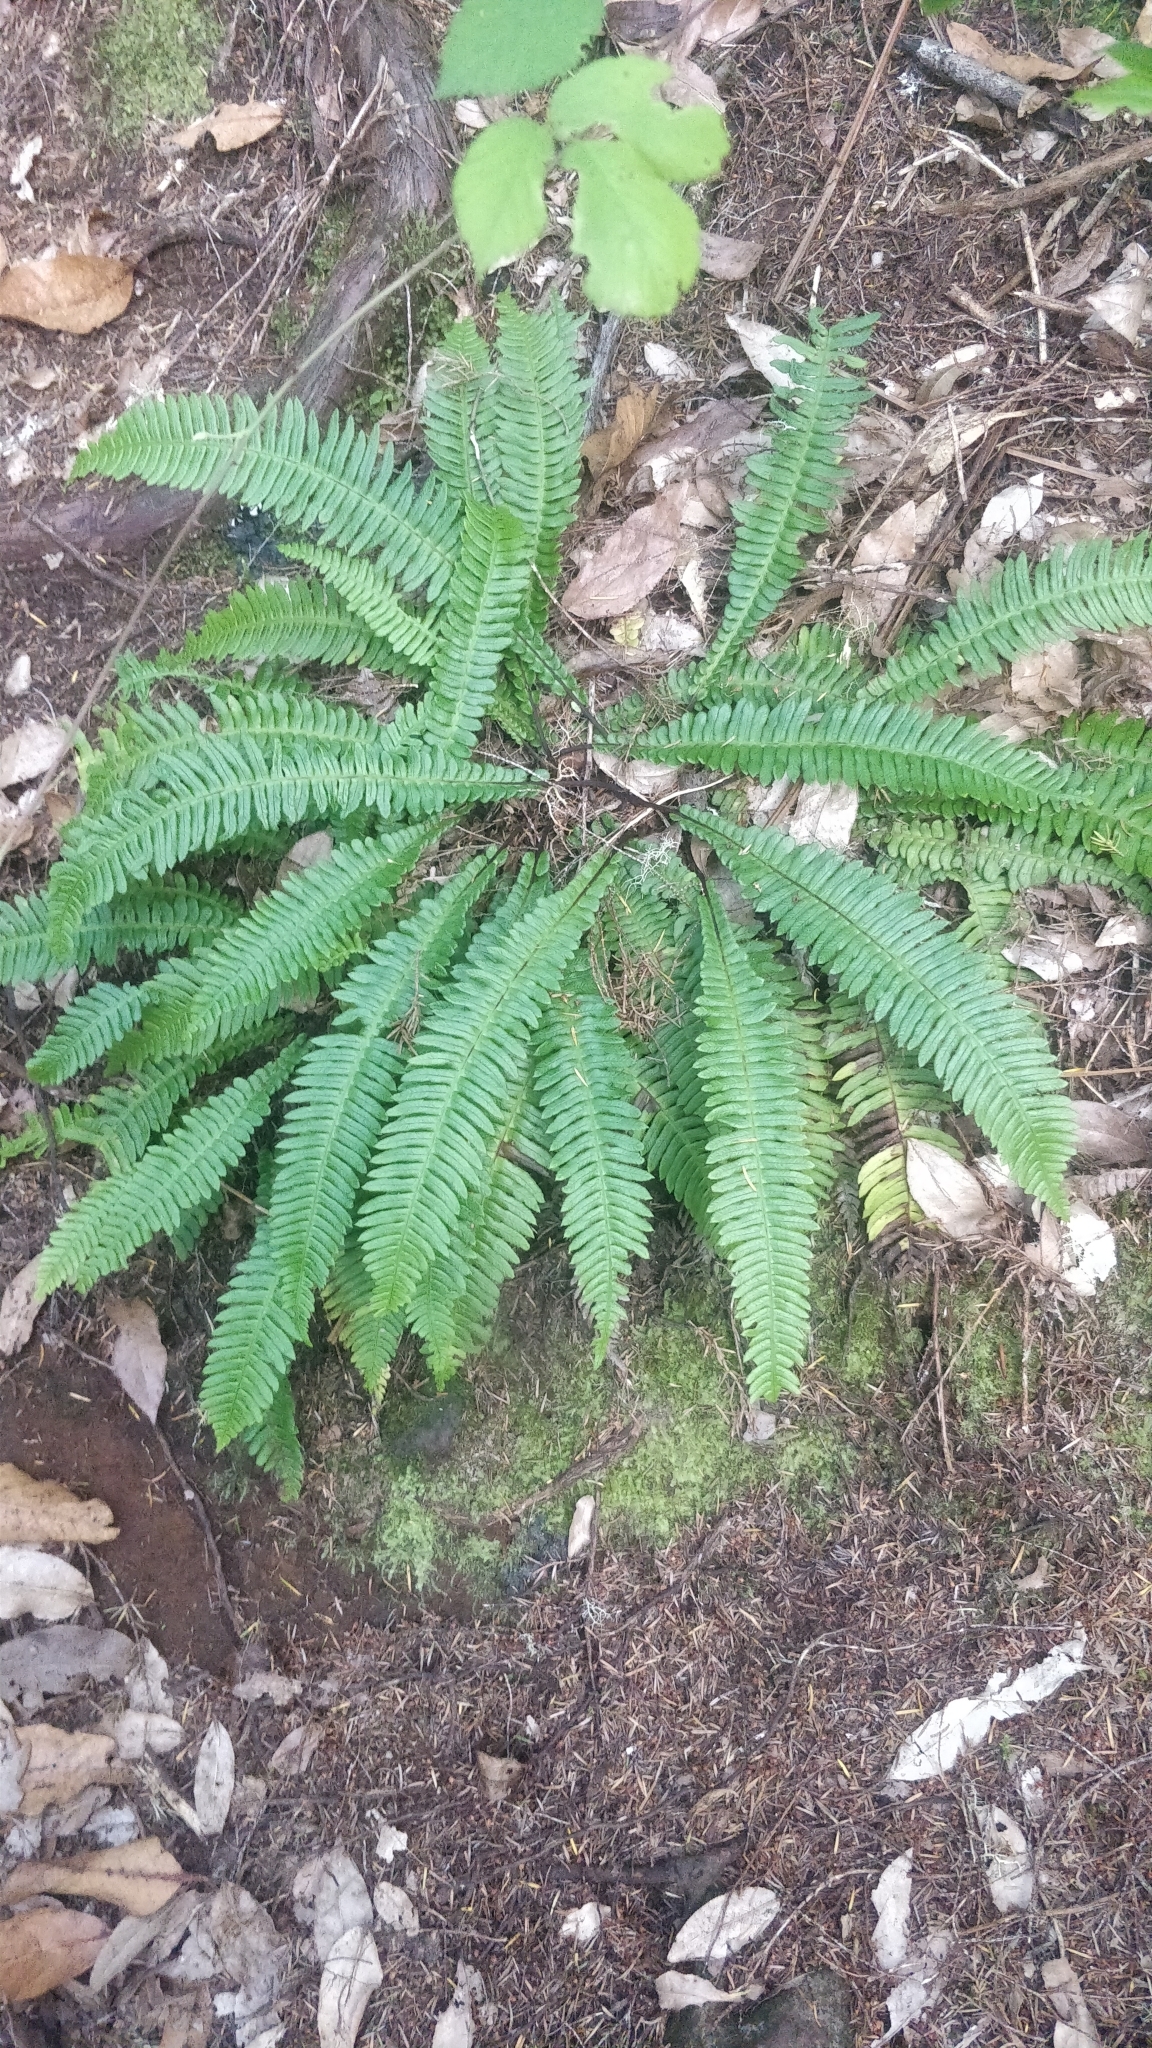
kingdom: Plantae
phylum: Tracheophyta
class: Polypodiopsida
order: Polypodiales
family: Blechnaceae
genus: Struthiopteris
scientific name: Struthiopteris spicant
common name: Deer fern
